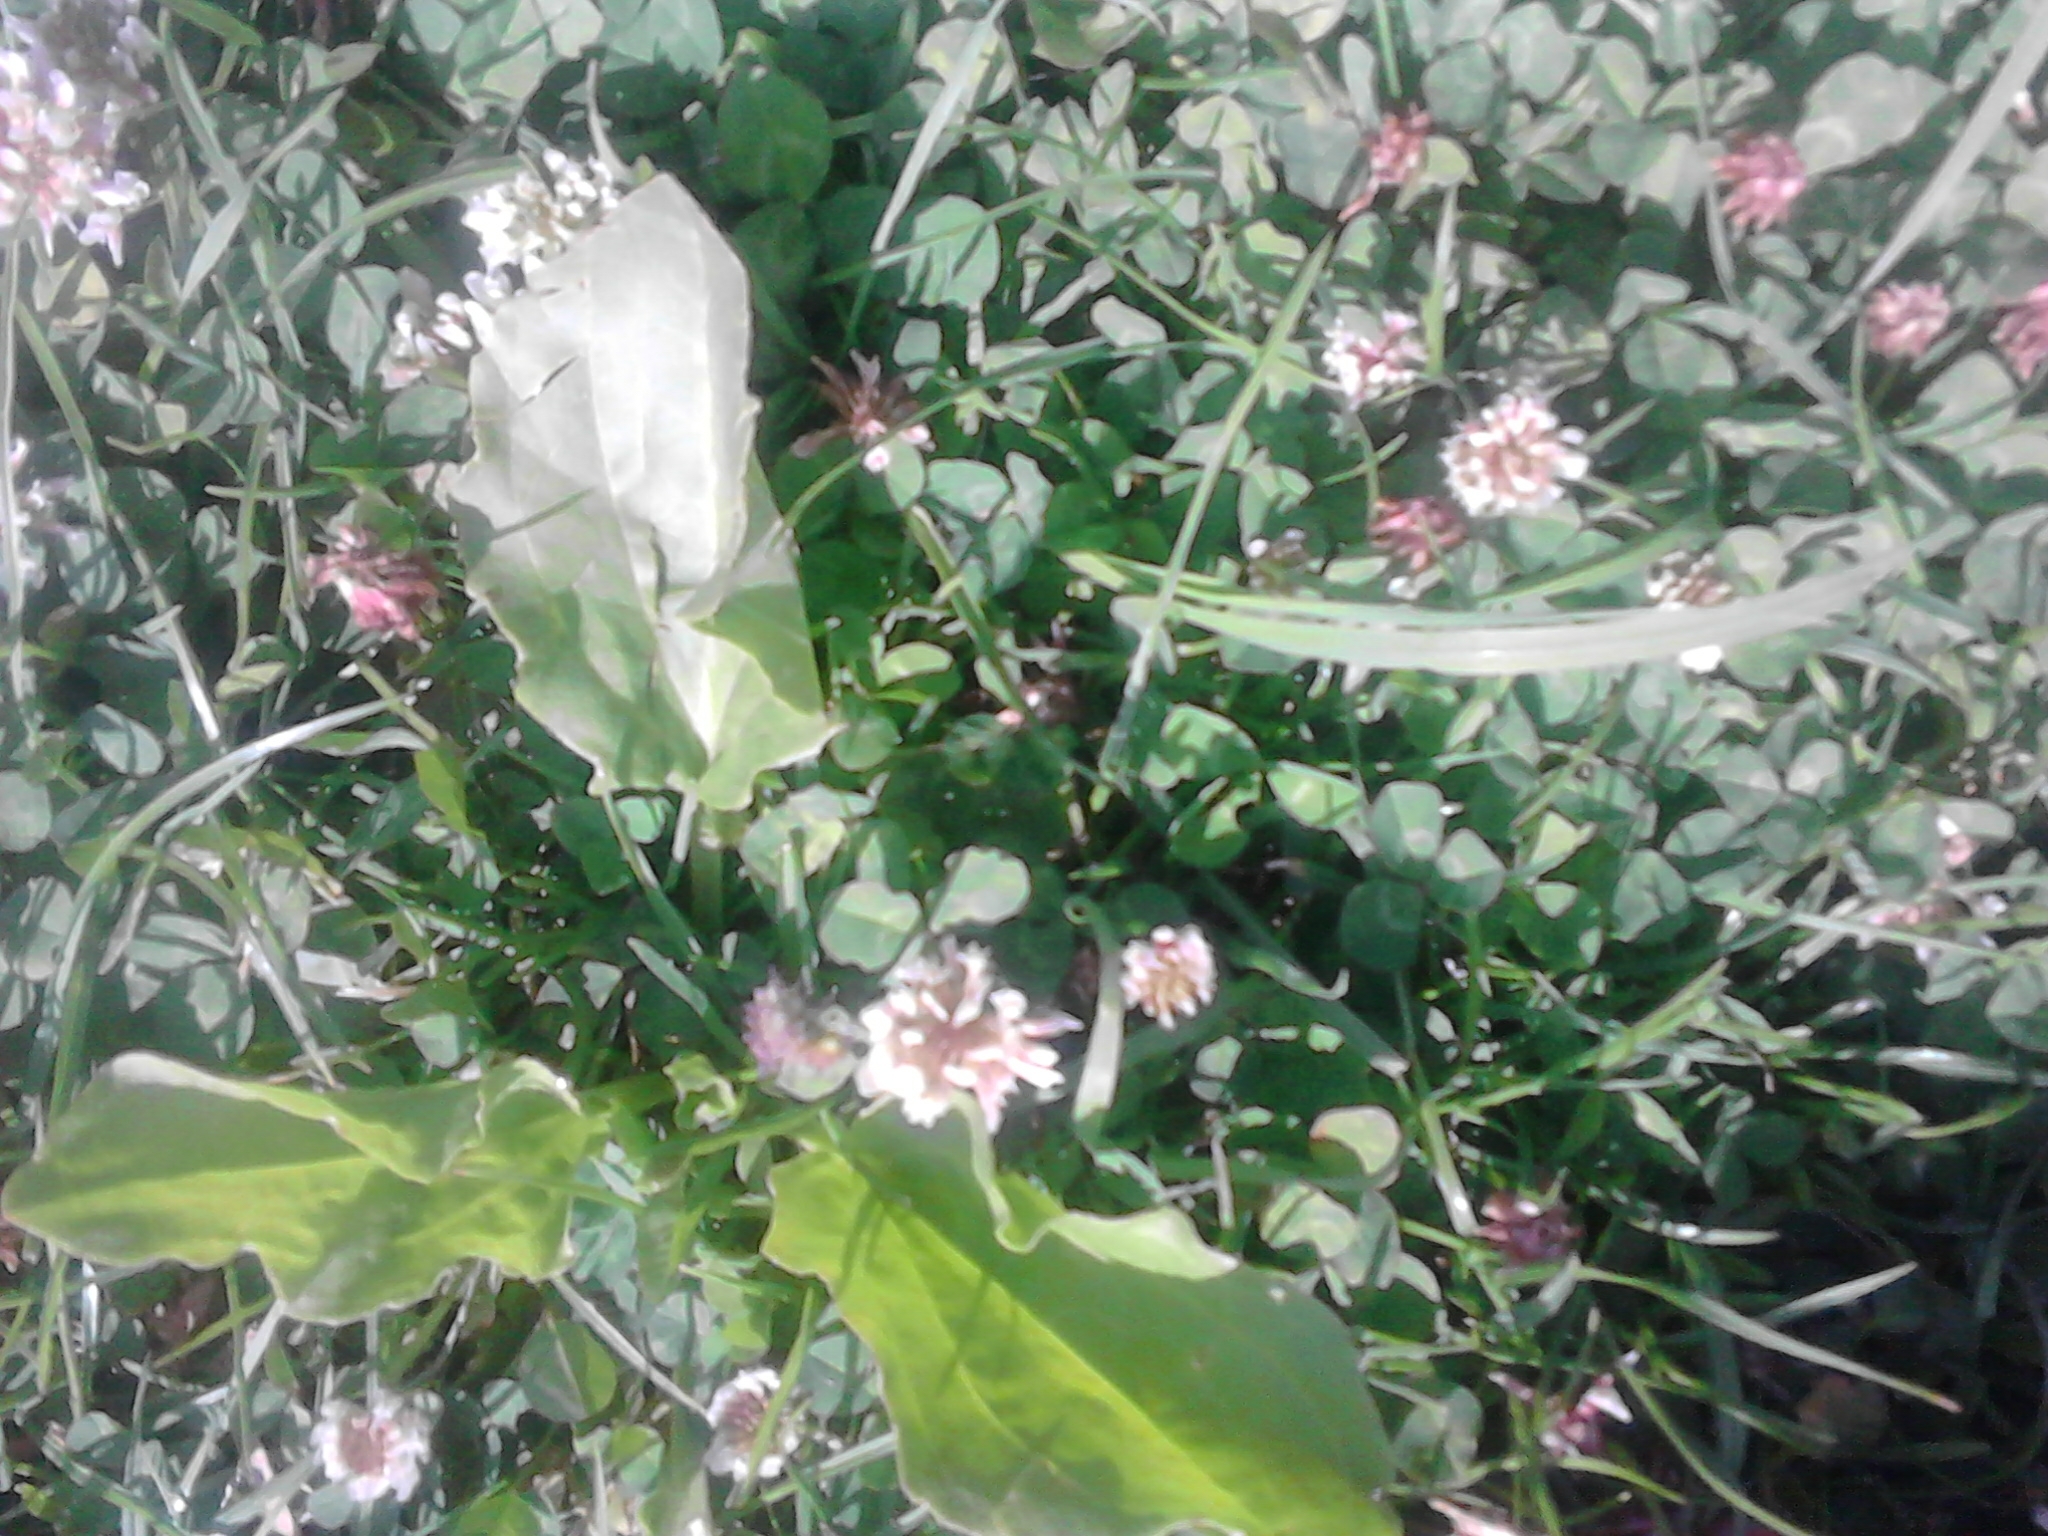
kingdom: Plantae
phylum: Tracheophyta
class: Magnoliopsida
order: Lamiales
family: Plantaginaceae
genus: Plantago
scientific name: Plantago major
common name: Common plantain
